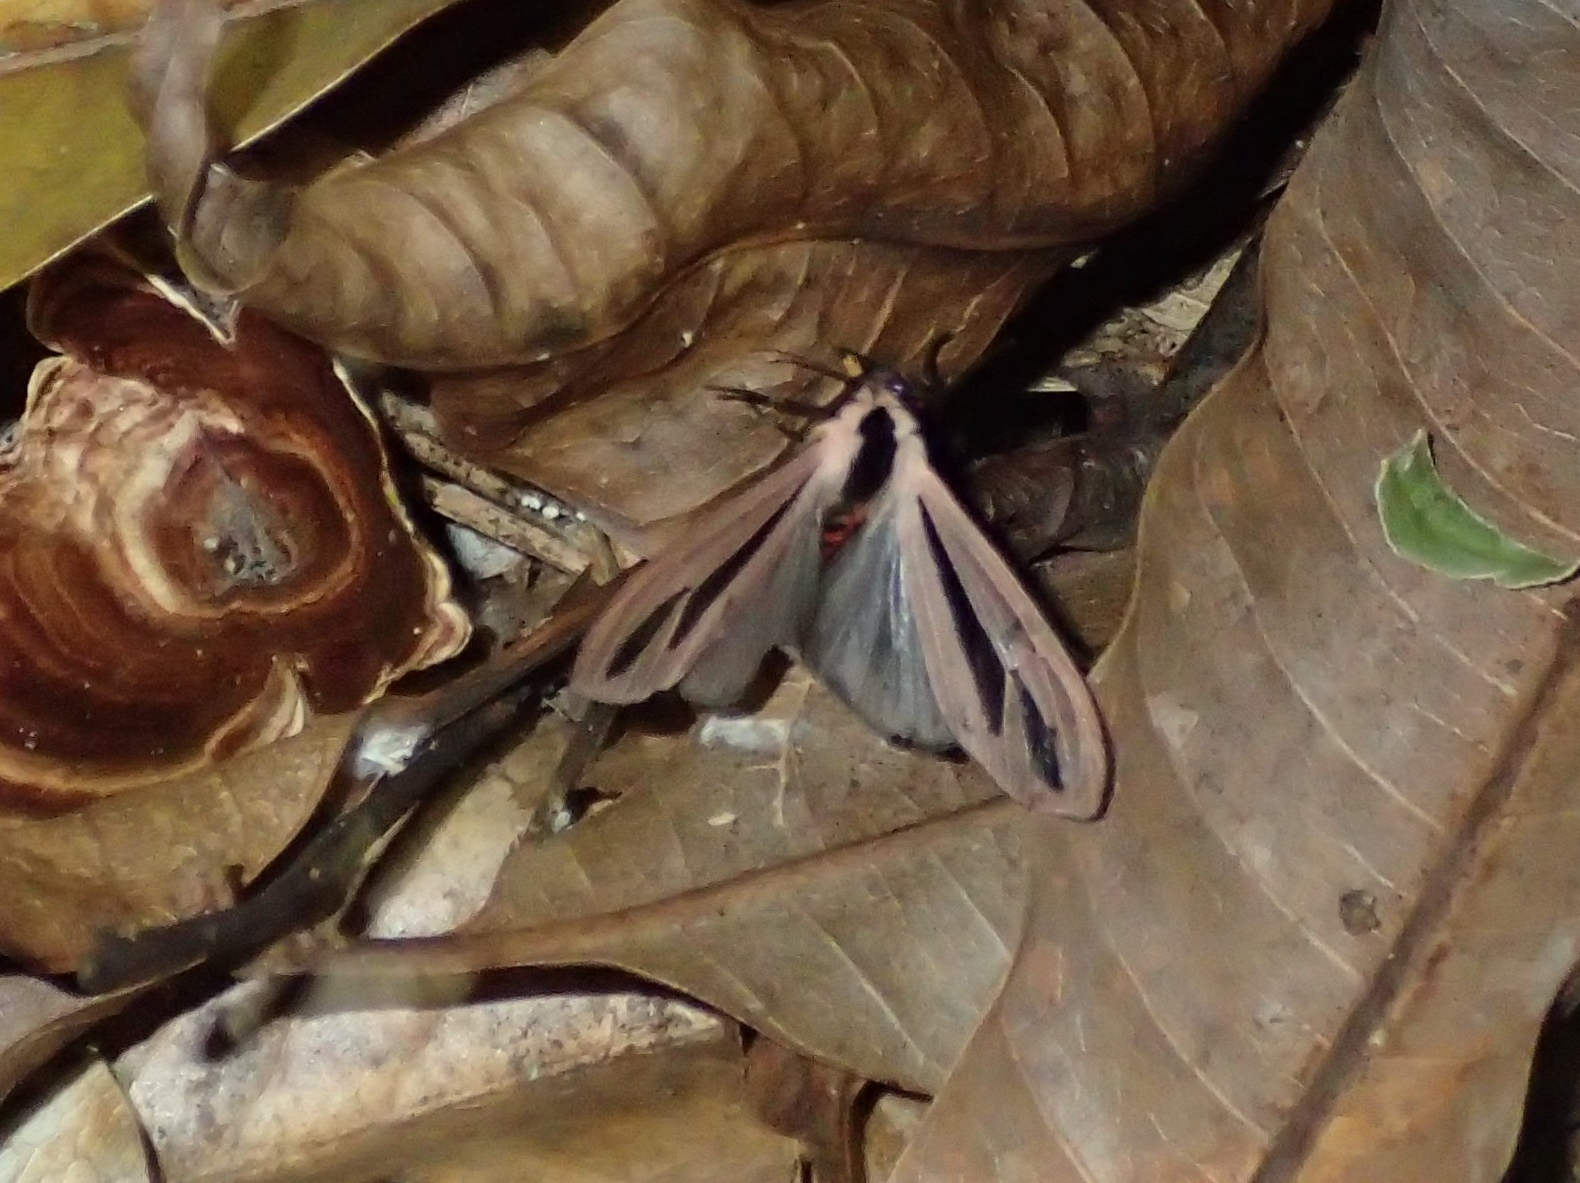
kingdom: Animalia
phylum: Arthropoda
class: Insecta
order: Lepidoptera
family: Erebidae
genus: Creatonotos
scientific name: Creatonotos gangis
